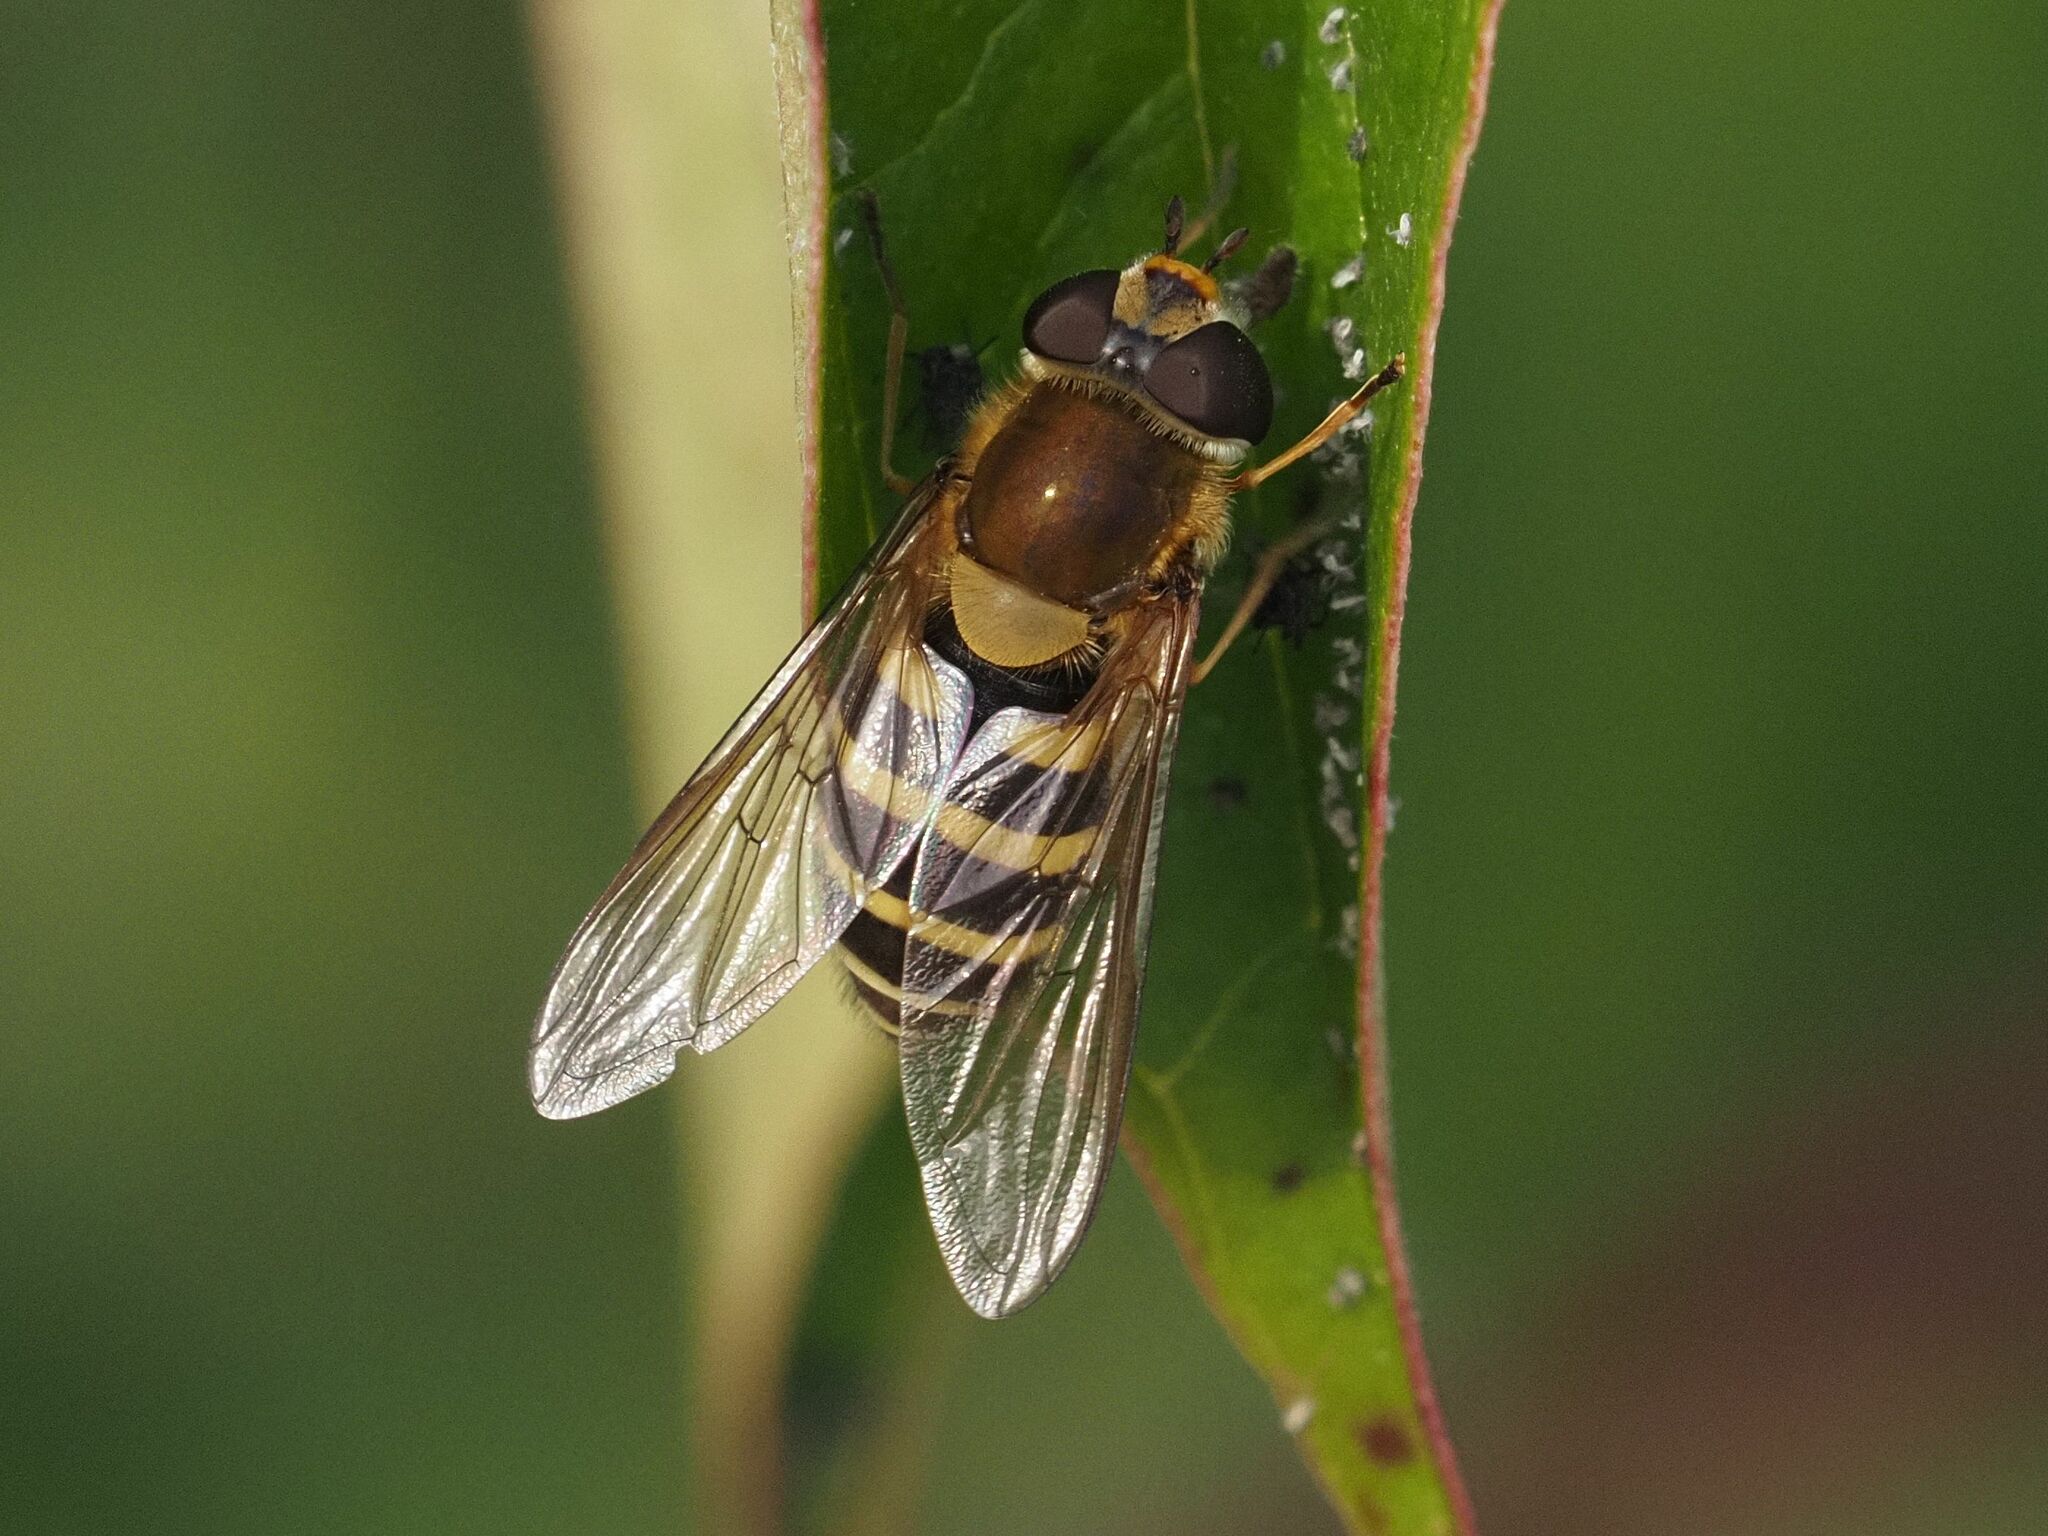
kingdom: Animalia
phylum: Arthropoda
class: Insecta
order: Diptera
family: Syrphidae
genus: Syrphus
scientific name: Syrphus
